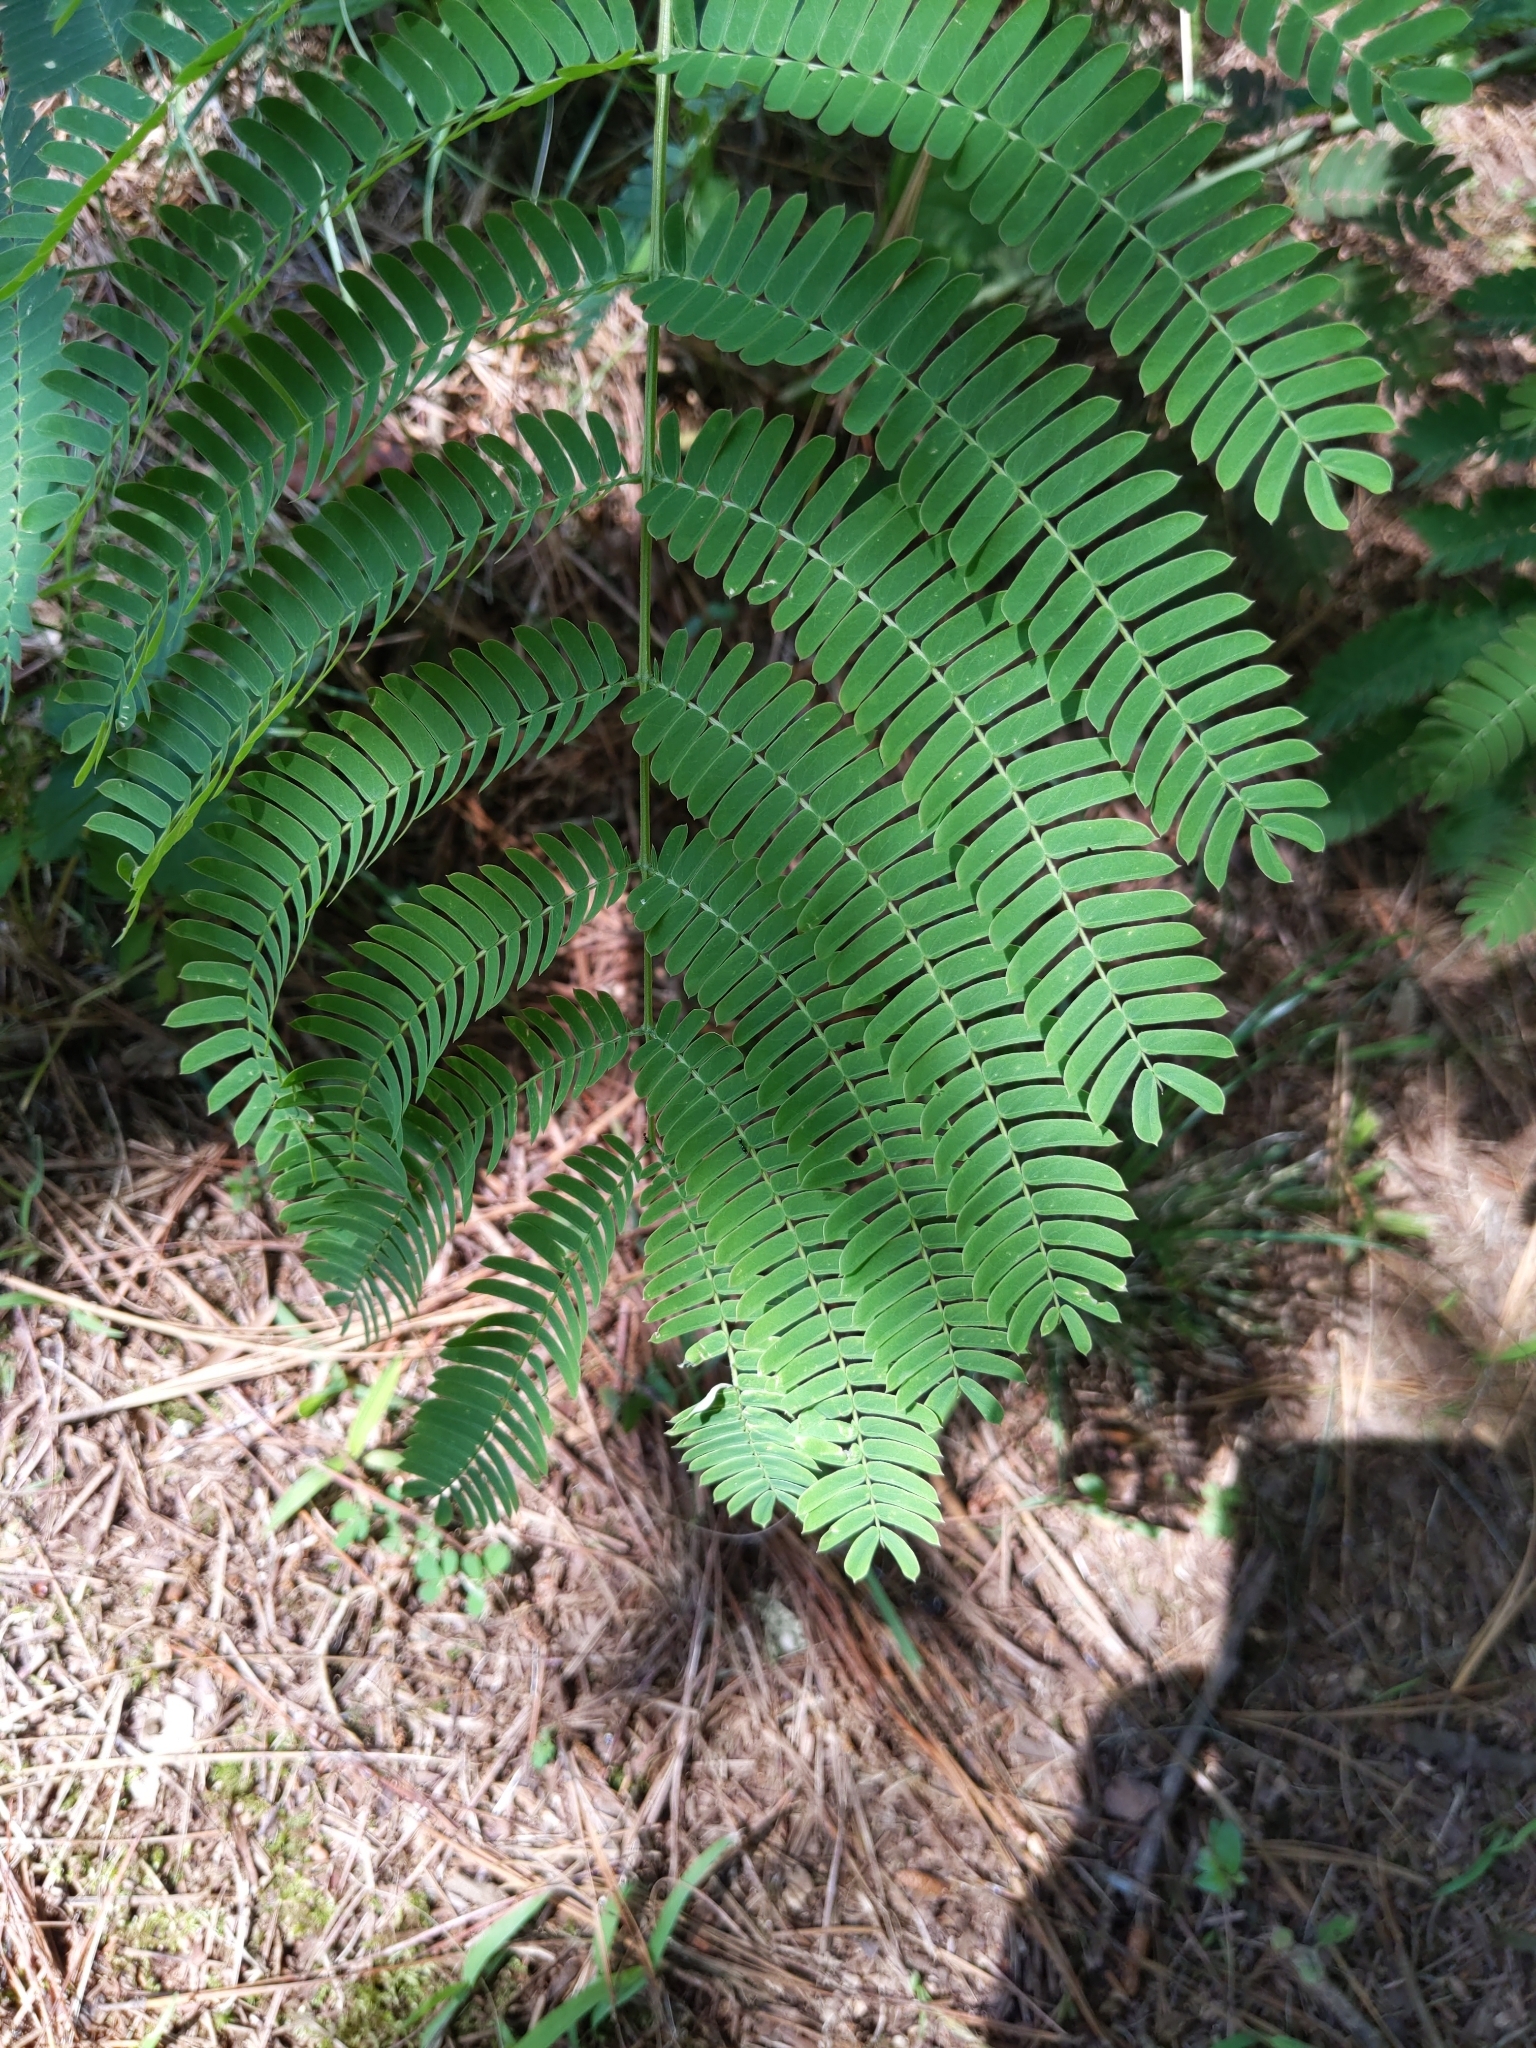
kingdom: Plantae
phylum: Tracheophyta
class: Magnoliopsida
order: Fabales
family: Fabaceae
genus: Albizia
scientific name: Albizia julibrissin
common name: Silktree
